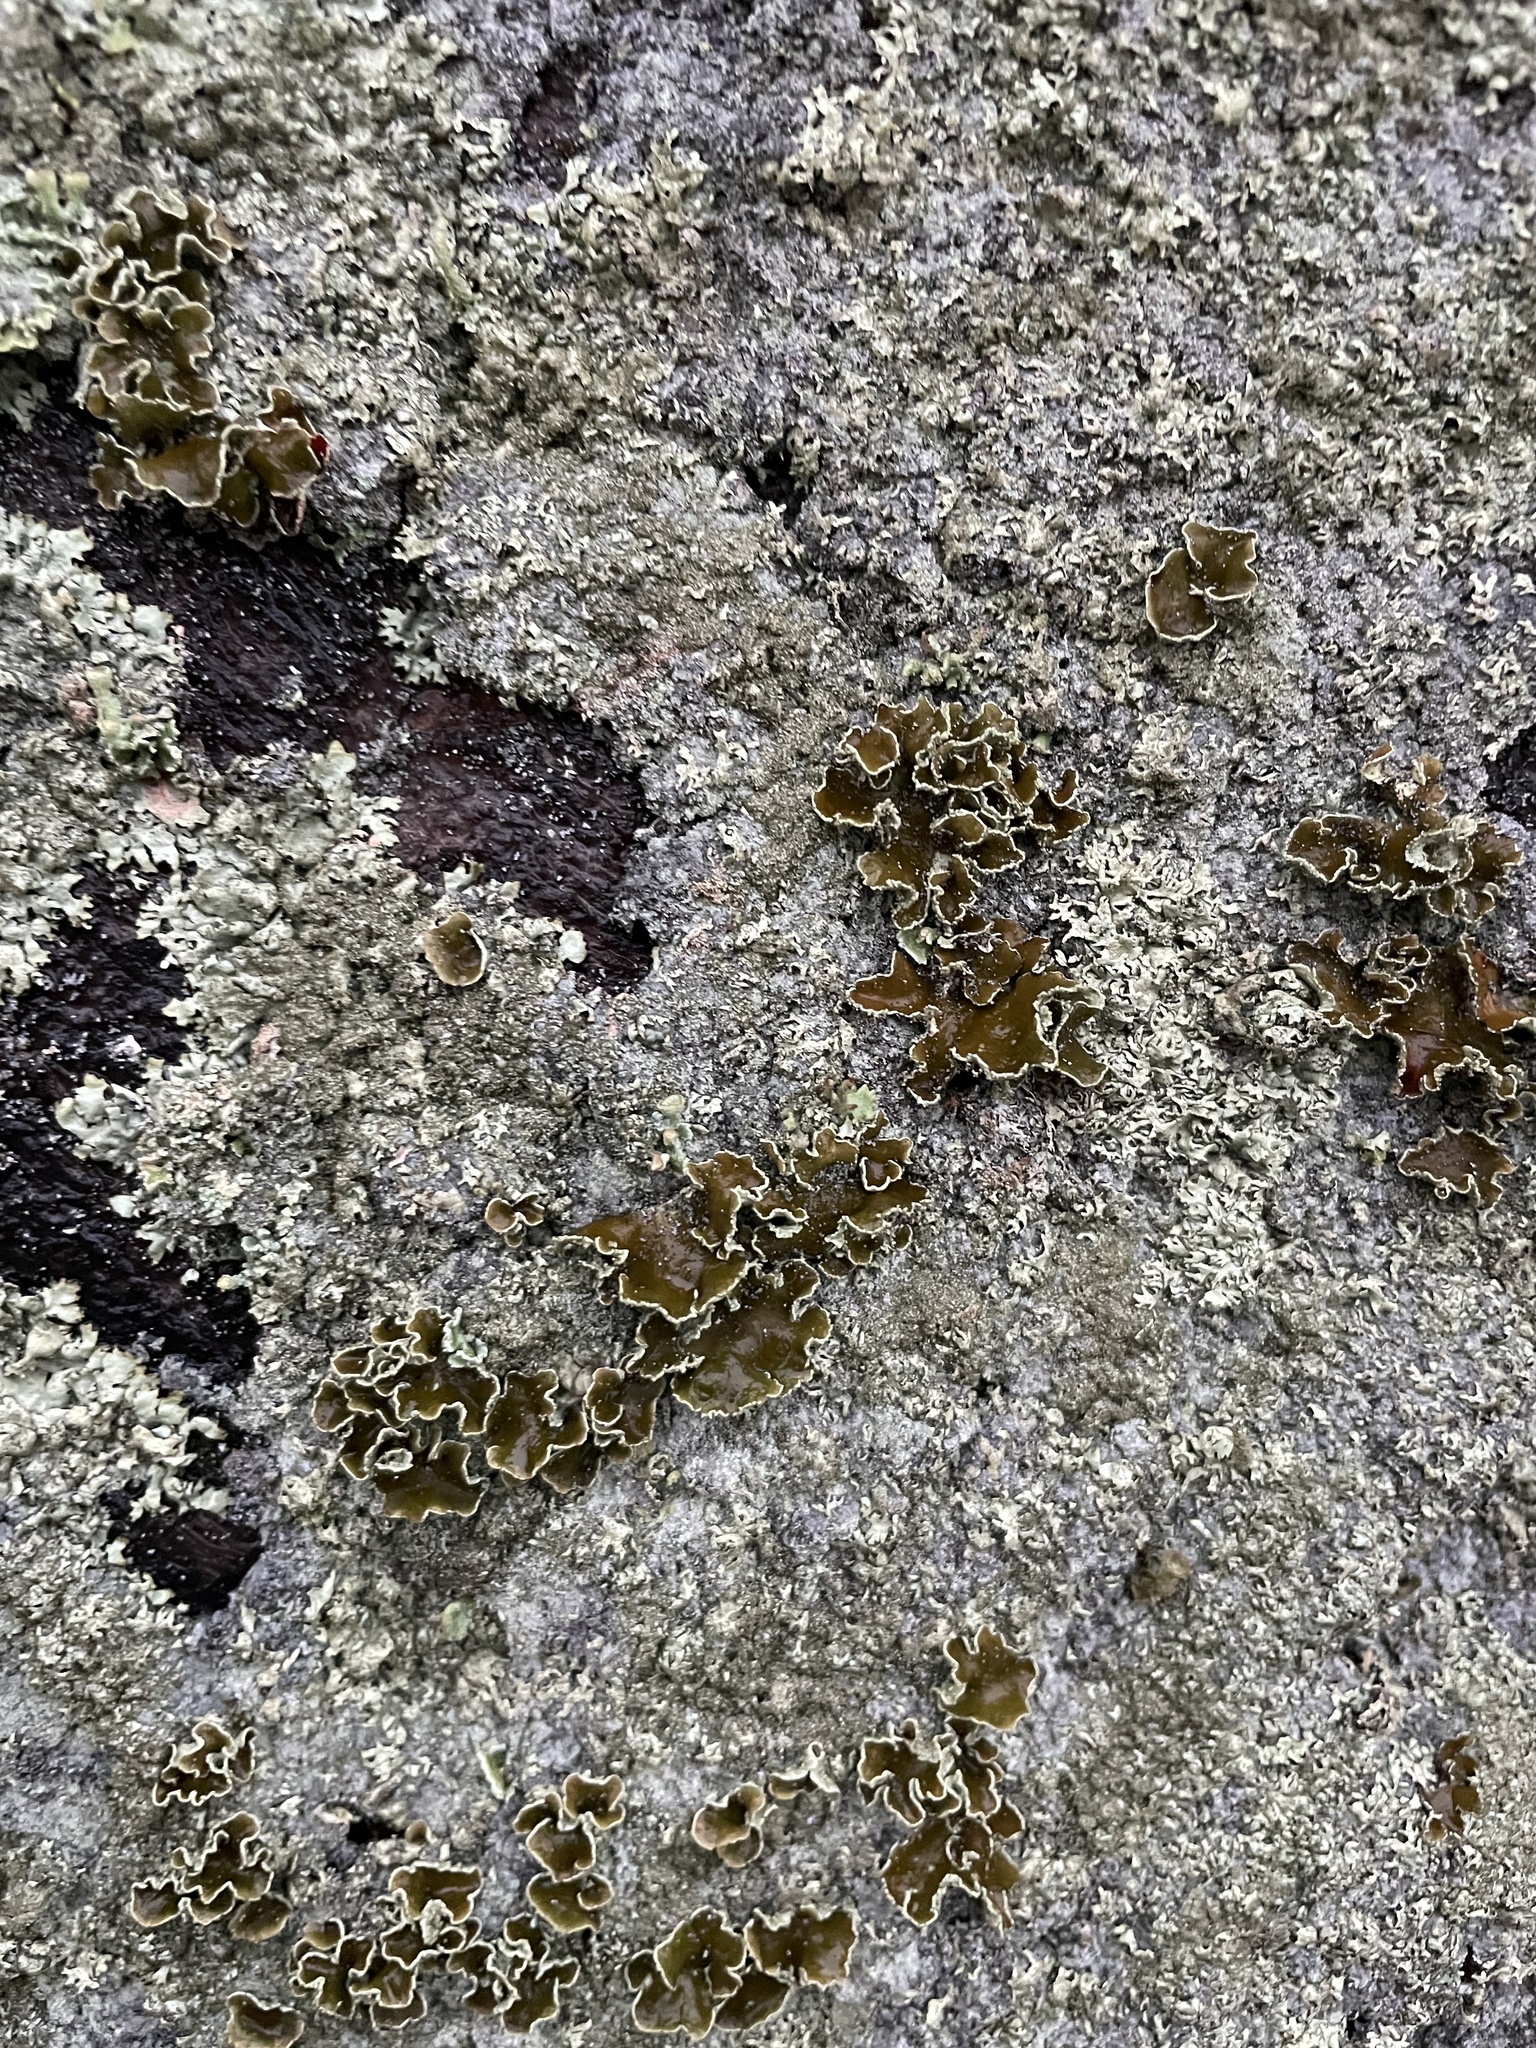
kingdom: Fungi
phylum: Ascomycota
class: Lecanoromycetes
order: Lecanorales
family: Parmeliaceae
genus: Xanthoparmelia
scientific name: Xanthoparmelia cumberlandia
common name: Cumberland rock shield
